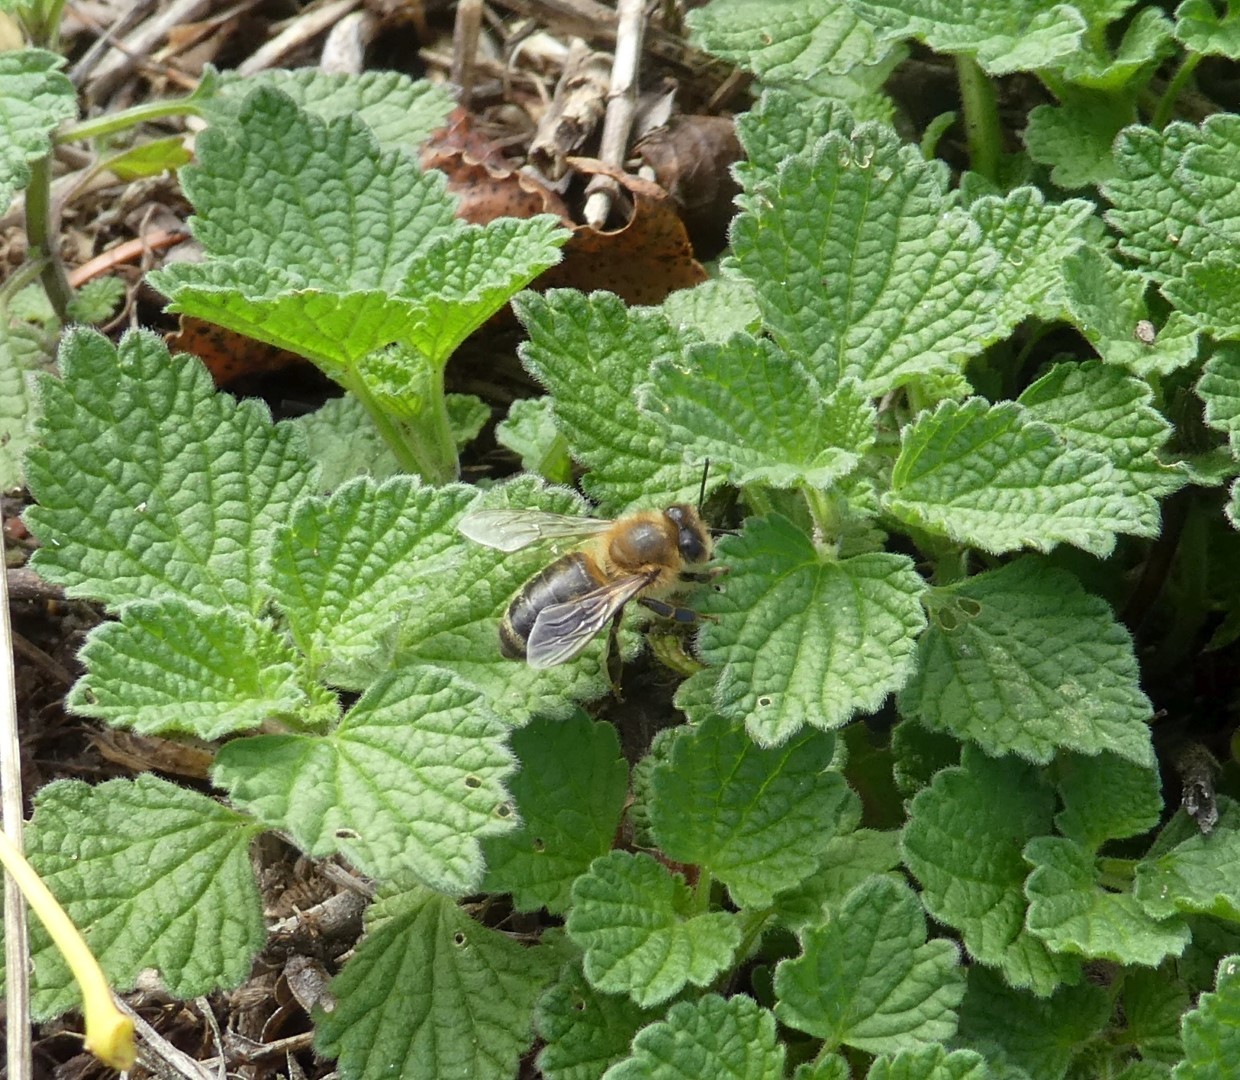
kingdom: Animalia
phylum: Arthropoda
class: Insecta
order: Hymenoptera
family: Apidae
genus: Apis
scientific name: Apis mellifera
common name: Honey bee
